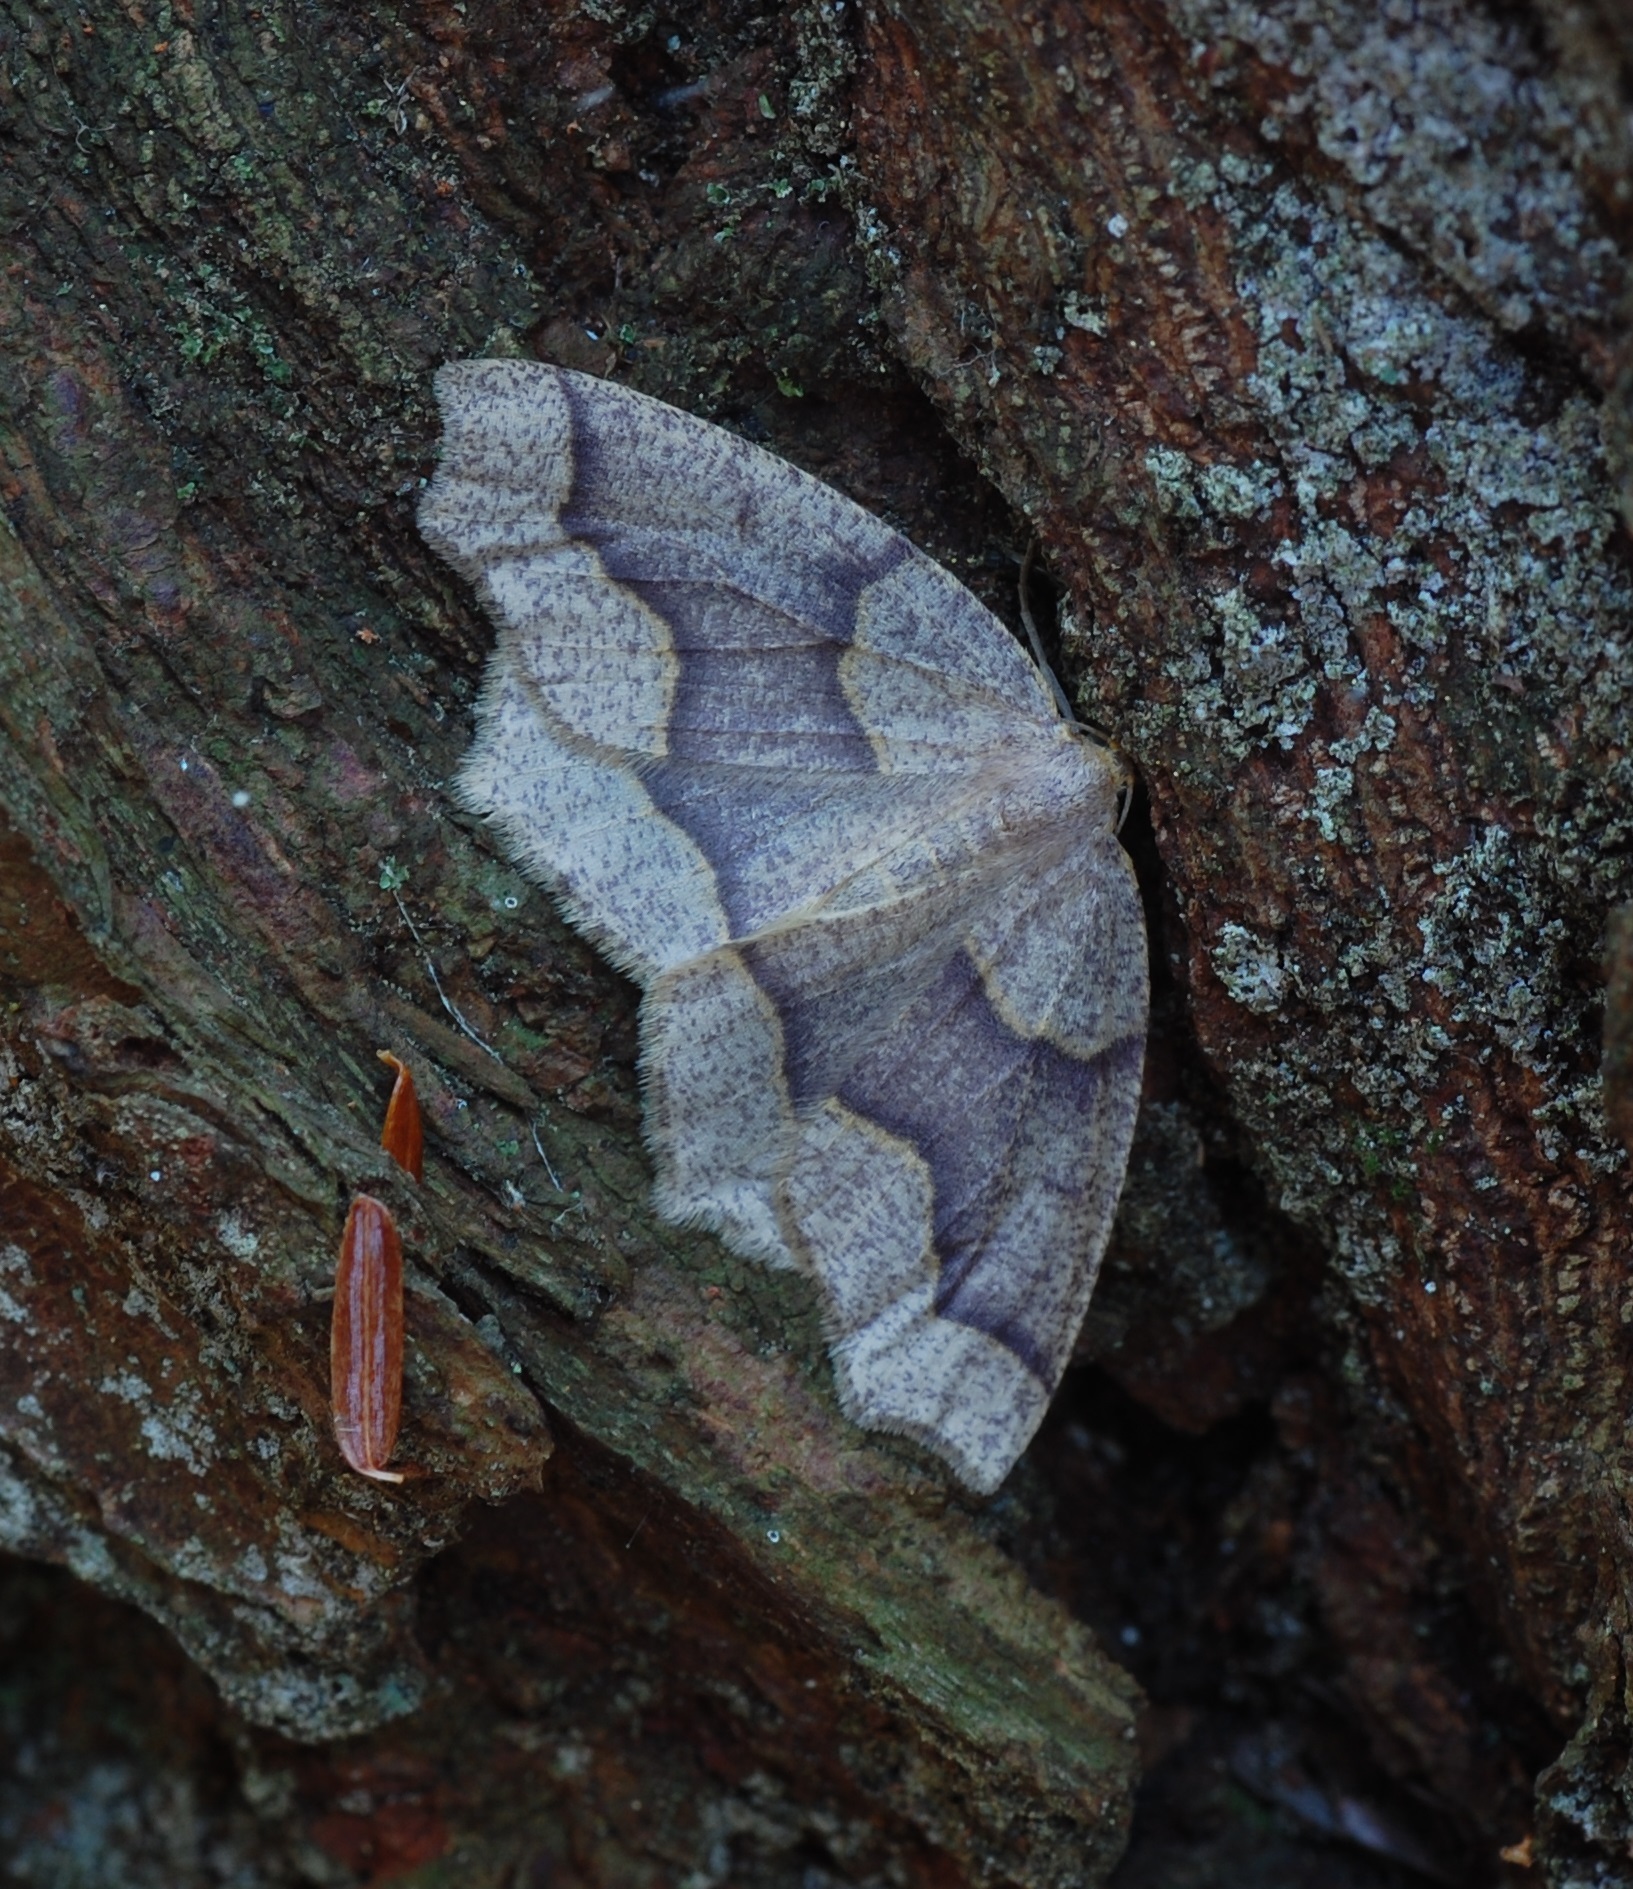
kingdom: Animalia
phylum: Arthropoda
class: Insecta
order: Lepidoptera
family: Geometridae
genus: Lambdina
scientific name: Lambdina fiscellaria
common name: Hemlock looper
